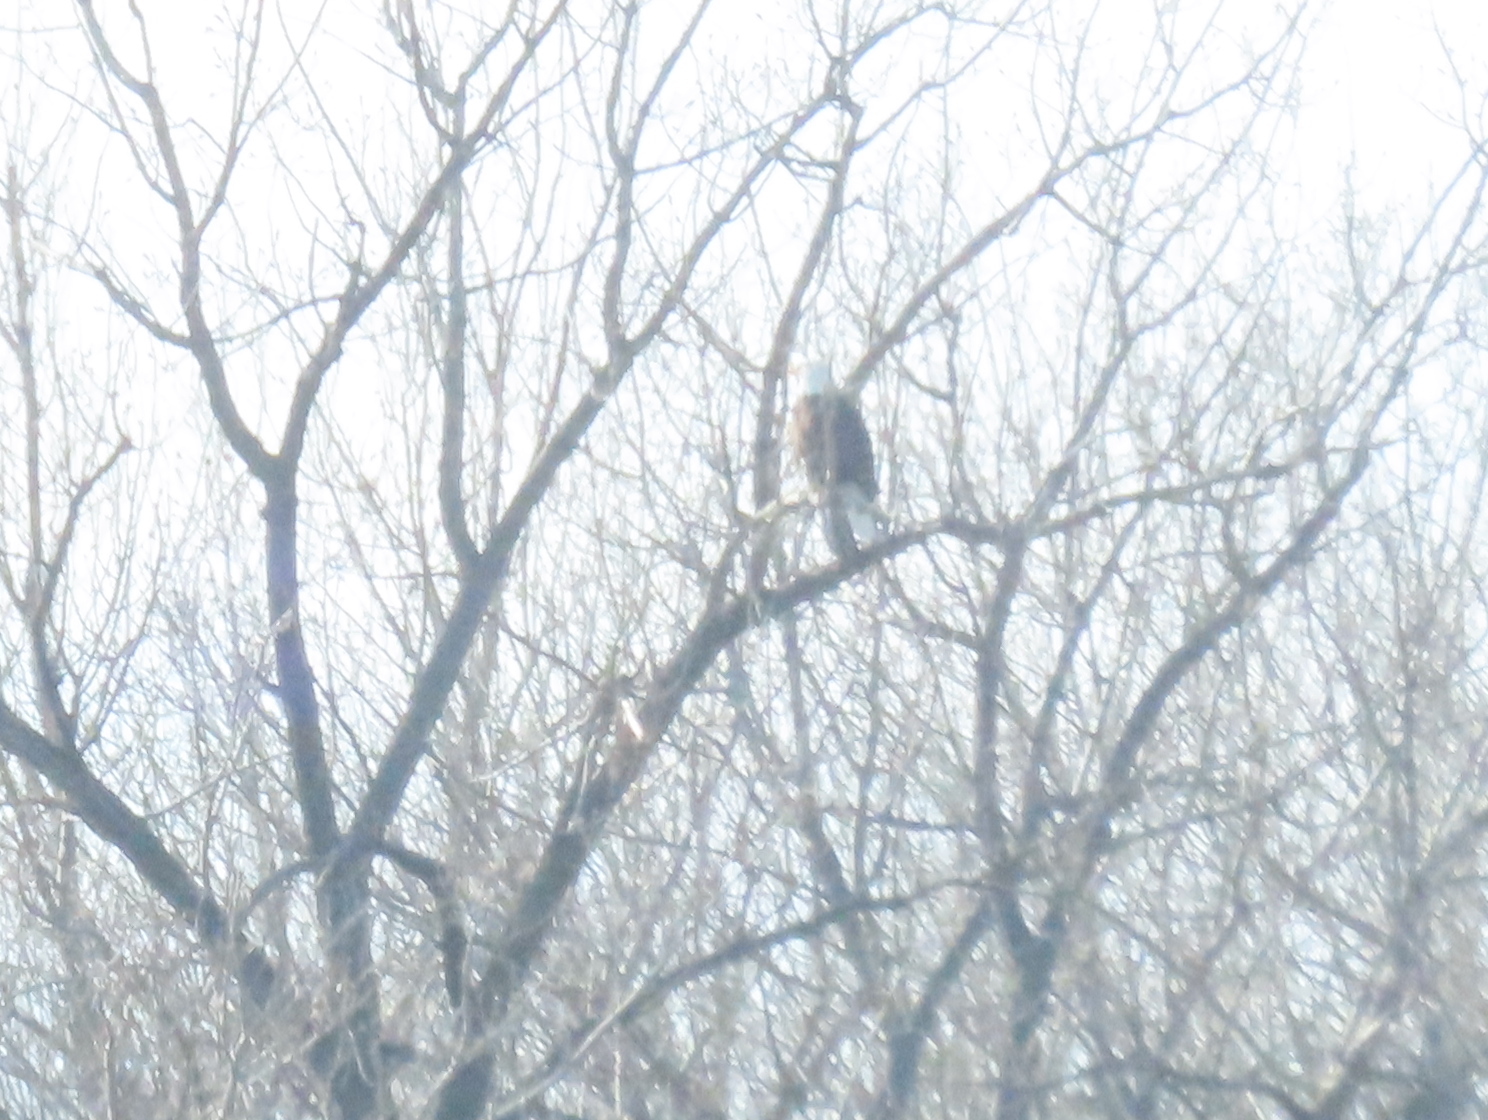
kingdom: Animalia
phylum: Chordata
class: Aves
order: Accipitriformes
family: Accipitridae
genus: Haliaeetus
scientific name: Haliaeetus leucocephalus
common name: Bald eagle
